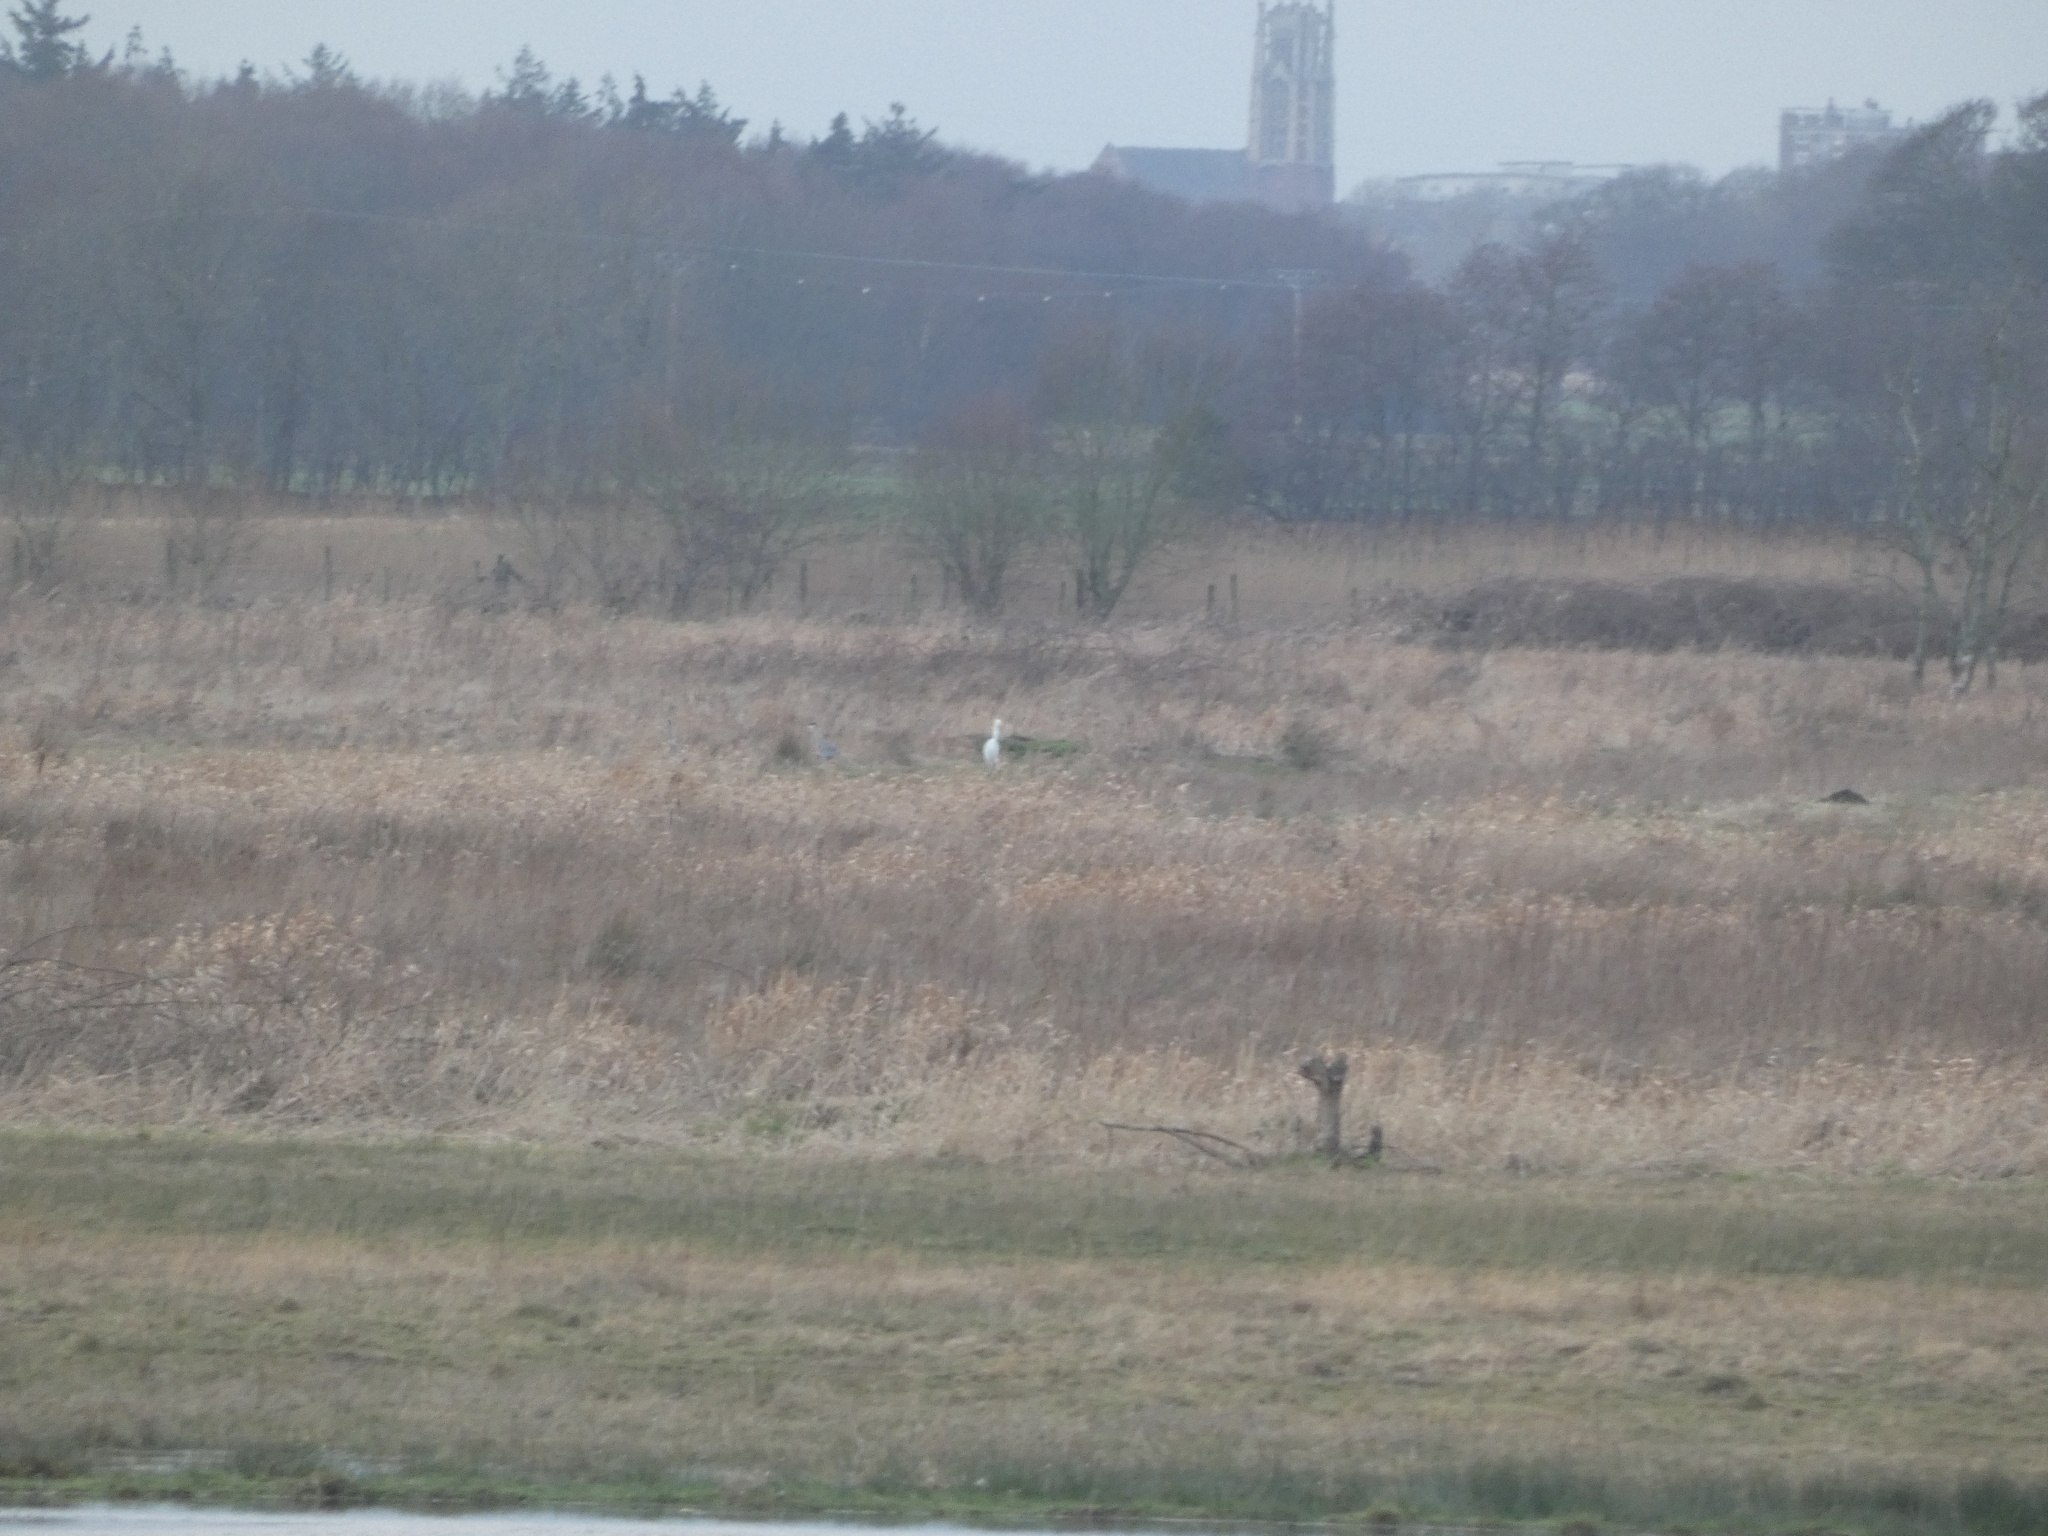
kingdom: Animalia
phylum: Chordata
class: Aves
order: Pelecaniformes
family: Ardeidae
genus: Ardea
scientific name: Ardea alba
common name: Great egret
